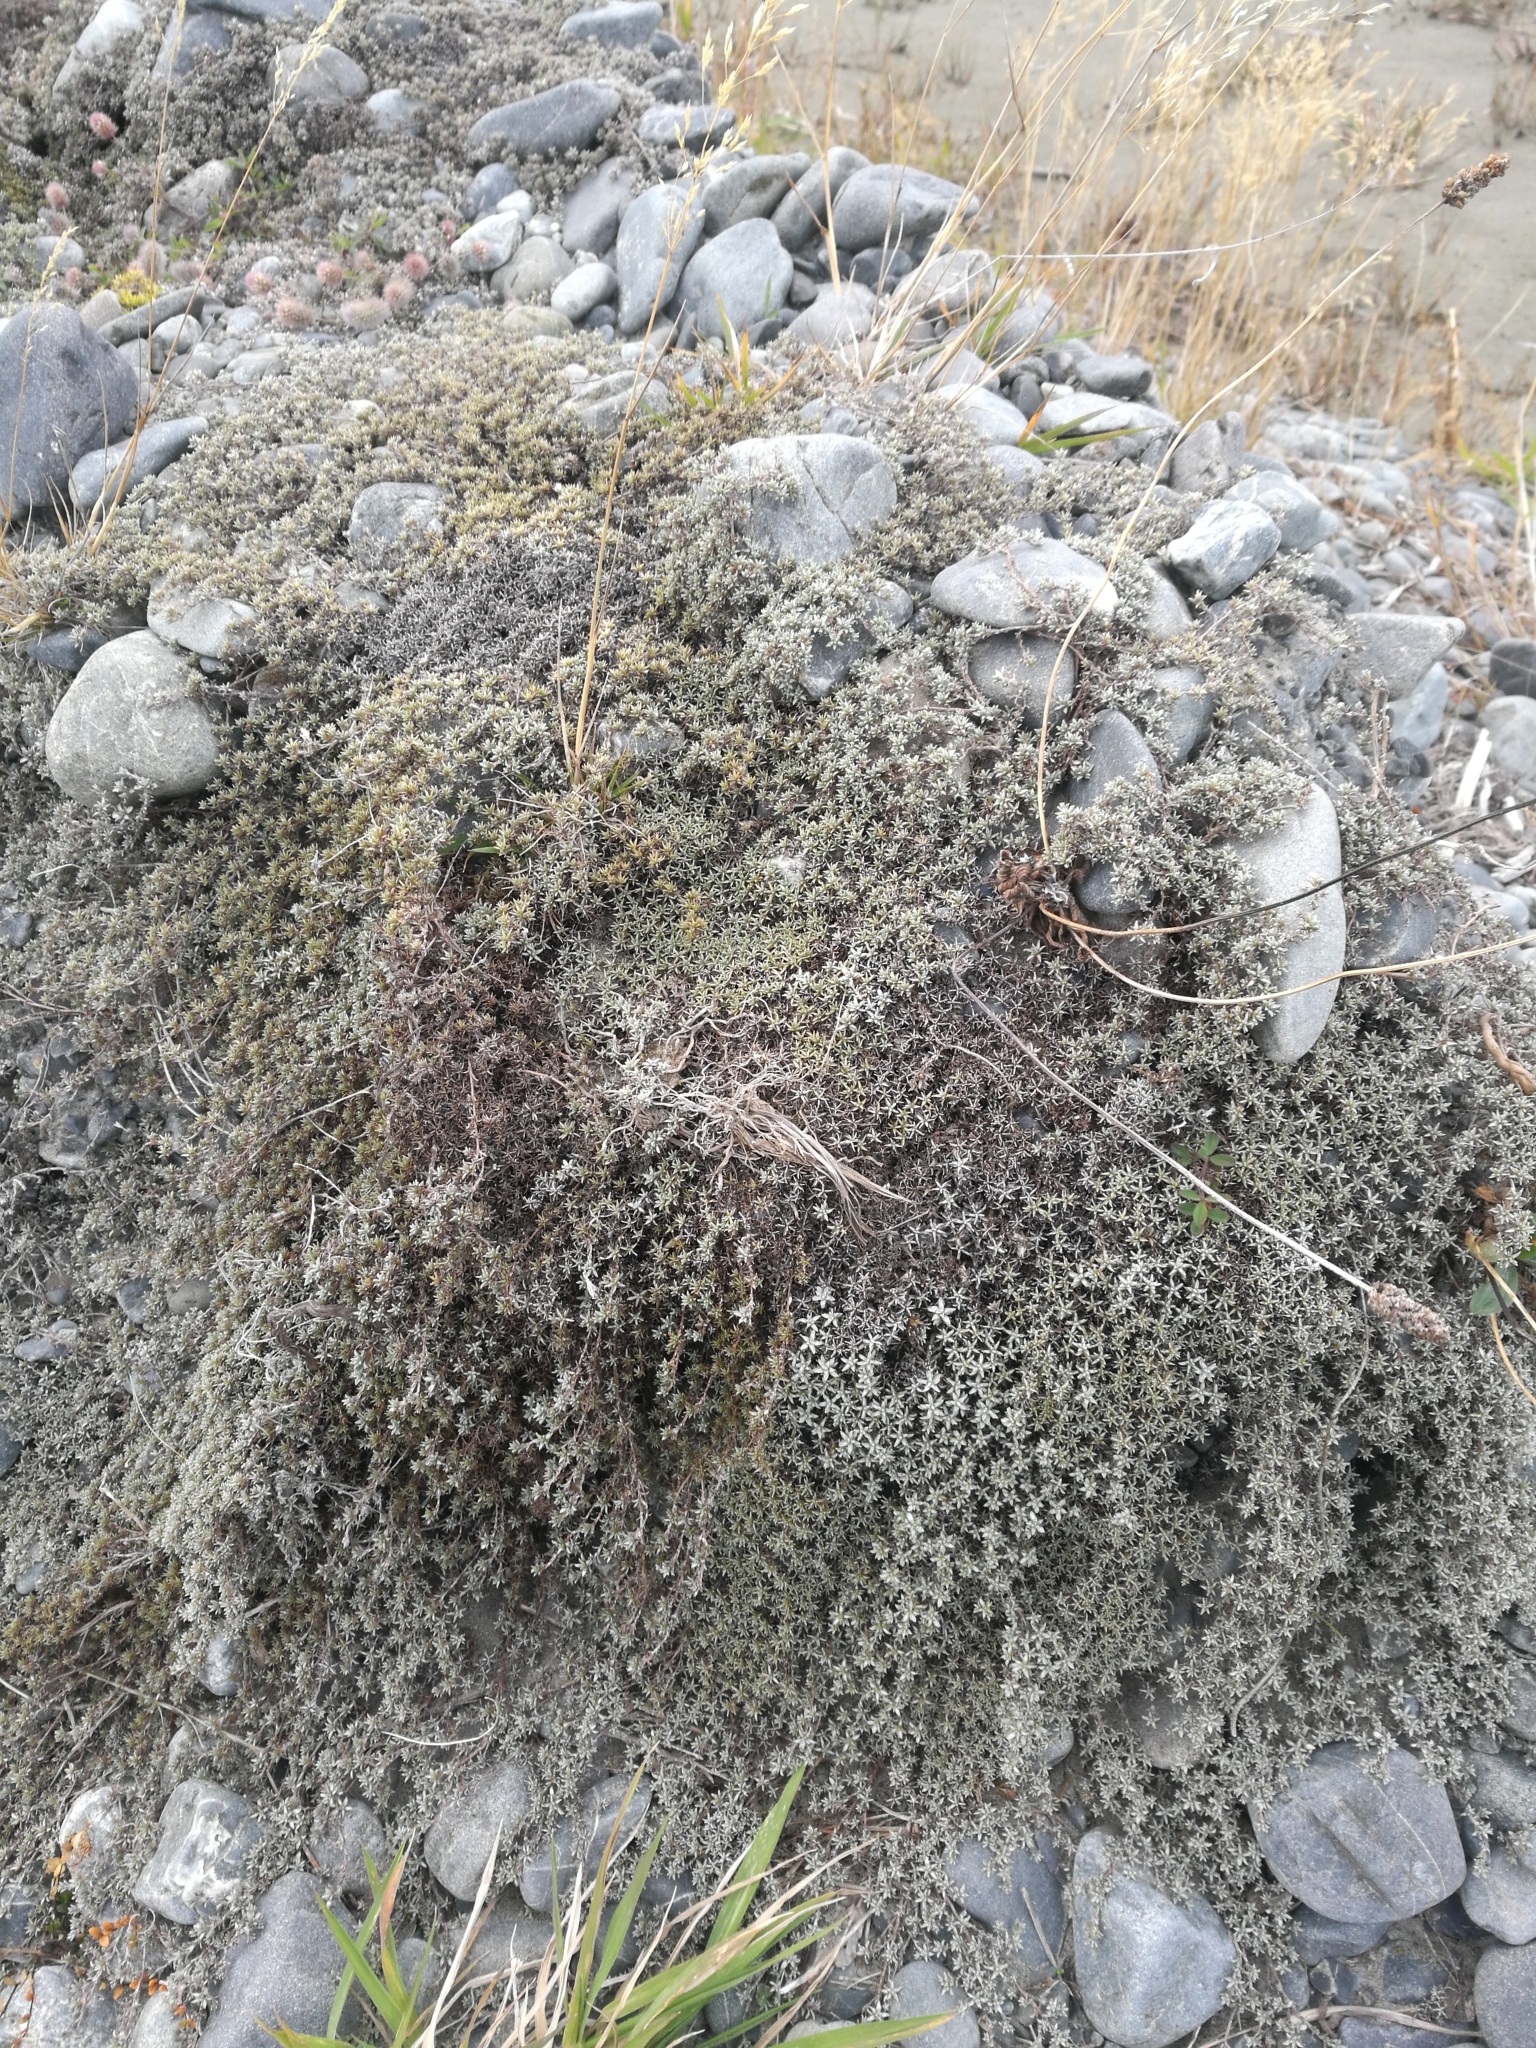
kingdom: Plantae
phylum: Tracheophyta
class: Magnoliopsida
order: Asterales
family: Asteraceae
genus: Raoulia
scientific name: Raoulia tenuicaulis
